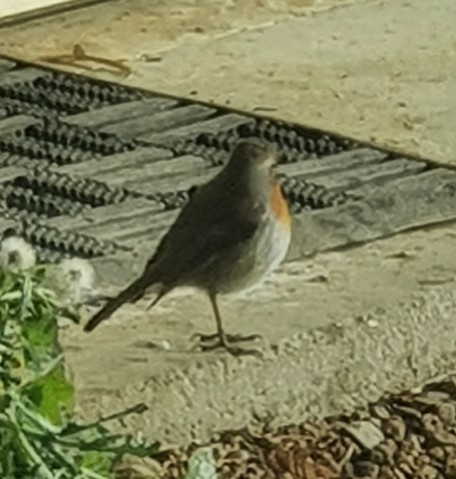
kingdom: Animalia
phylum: Chordata
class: Aves
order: Passeriformes
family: Muscicapidae
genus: Erithacus
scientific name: Erithacus rubecula
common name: European robin
